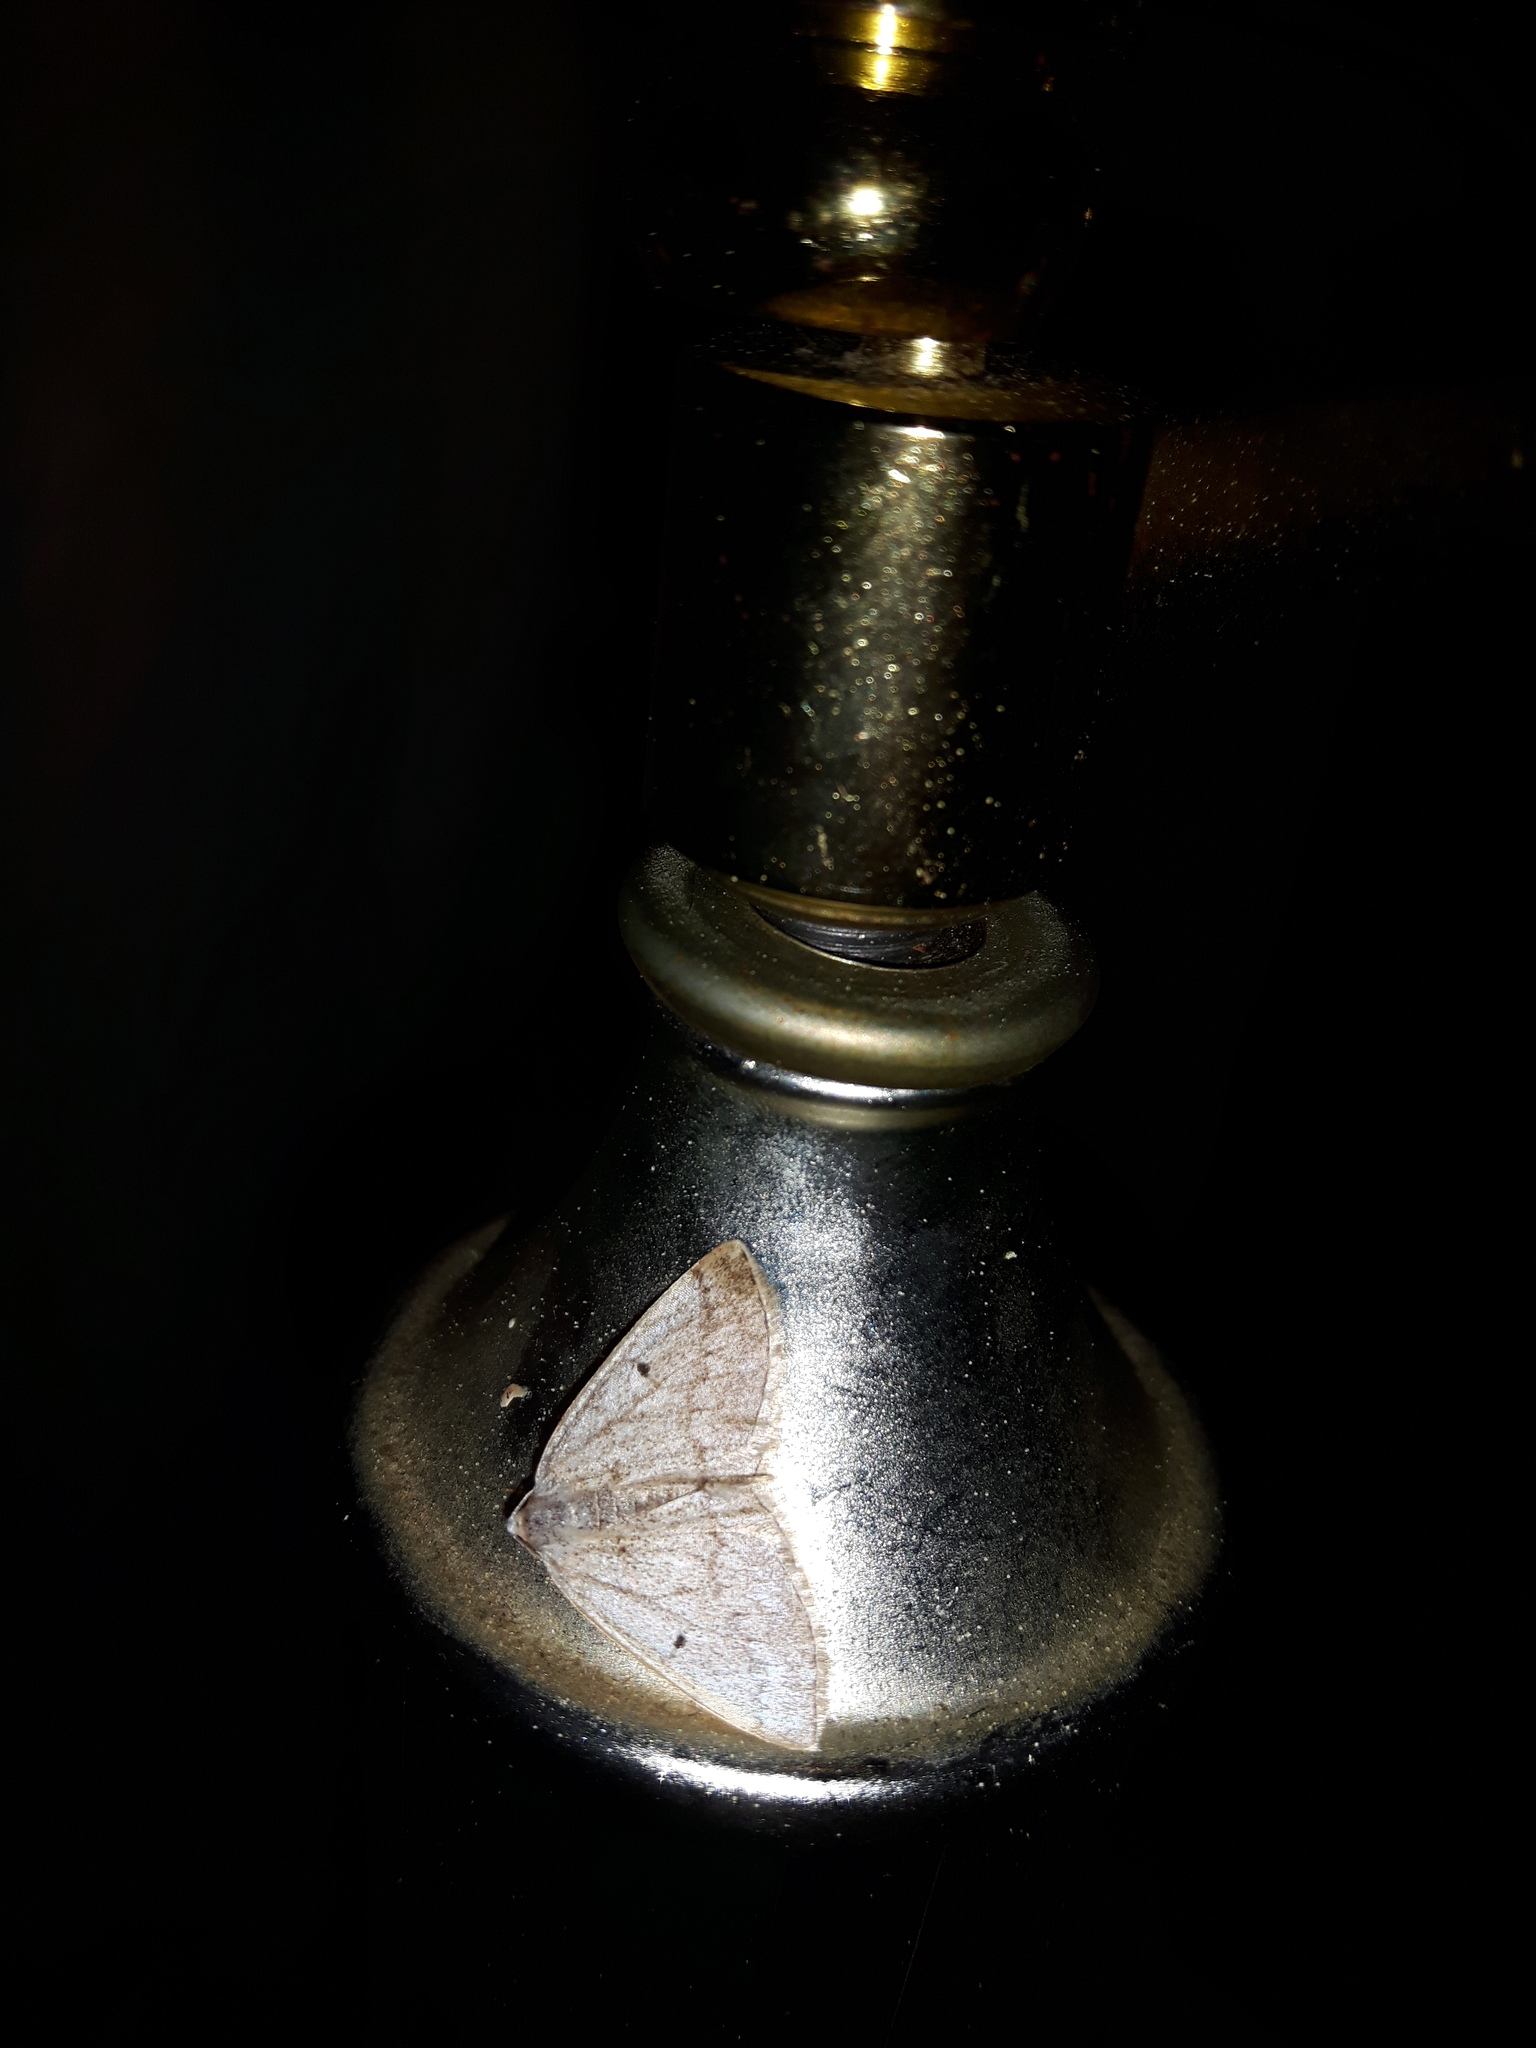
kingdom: Animalia
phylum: Arthropoda
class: Insecta
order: Lepidoptera
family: Geometridae
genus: Lomographa
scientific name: Lomographa glomeraria
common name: Gray spring moth
